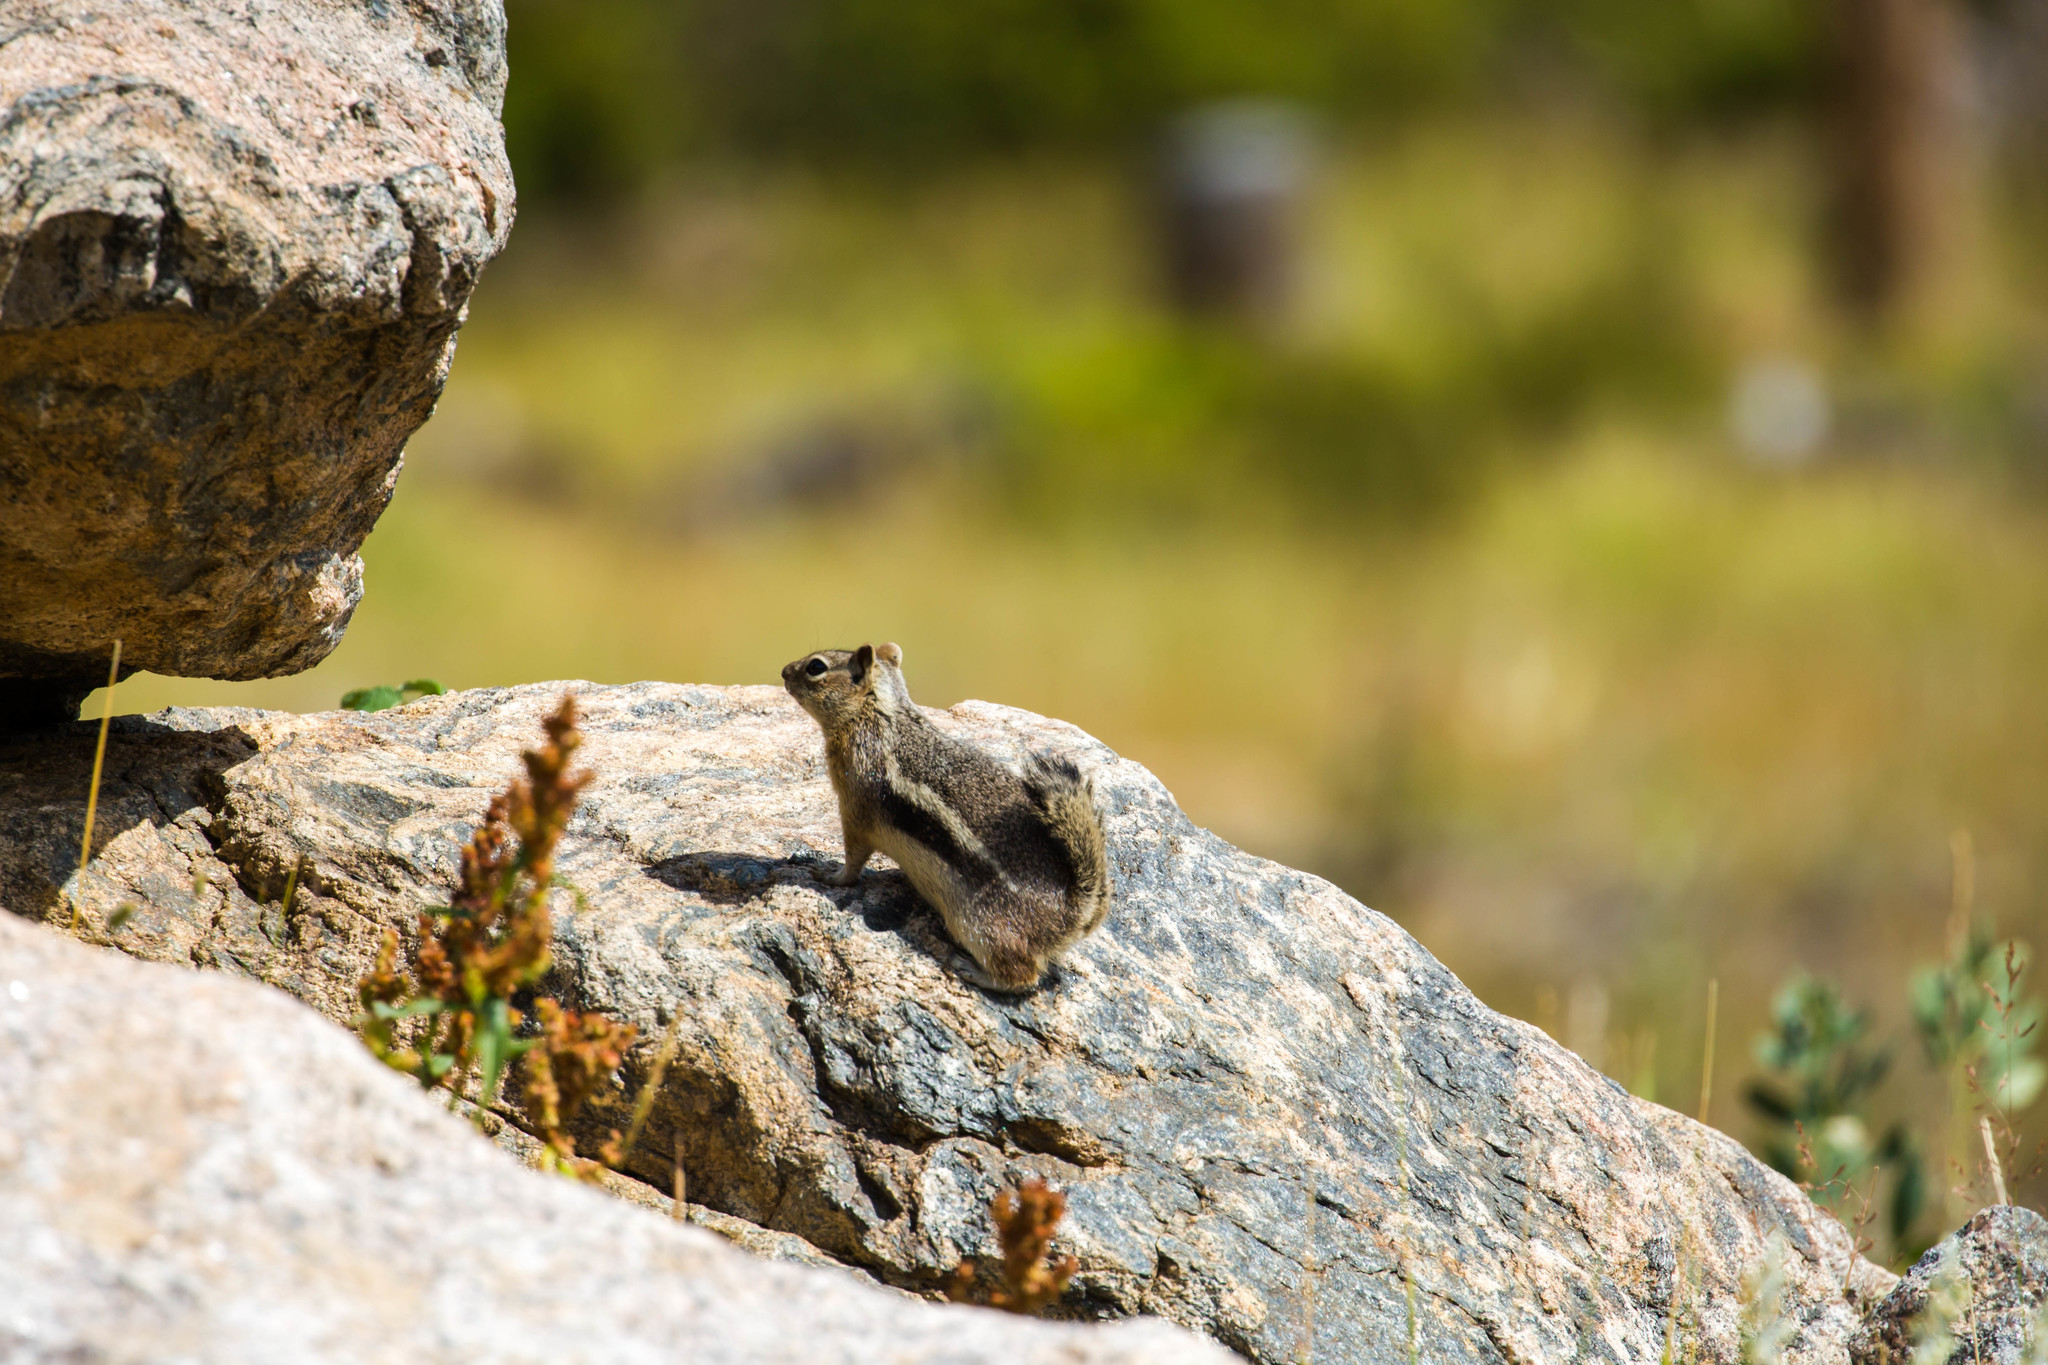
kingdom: Animalia
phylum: Chordata
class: Mammalia
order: Rodentia
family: Sciuridae
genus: Callospermophilus
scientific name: Callospermophilus lateralis
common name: Golden-mantled ground squirrel
